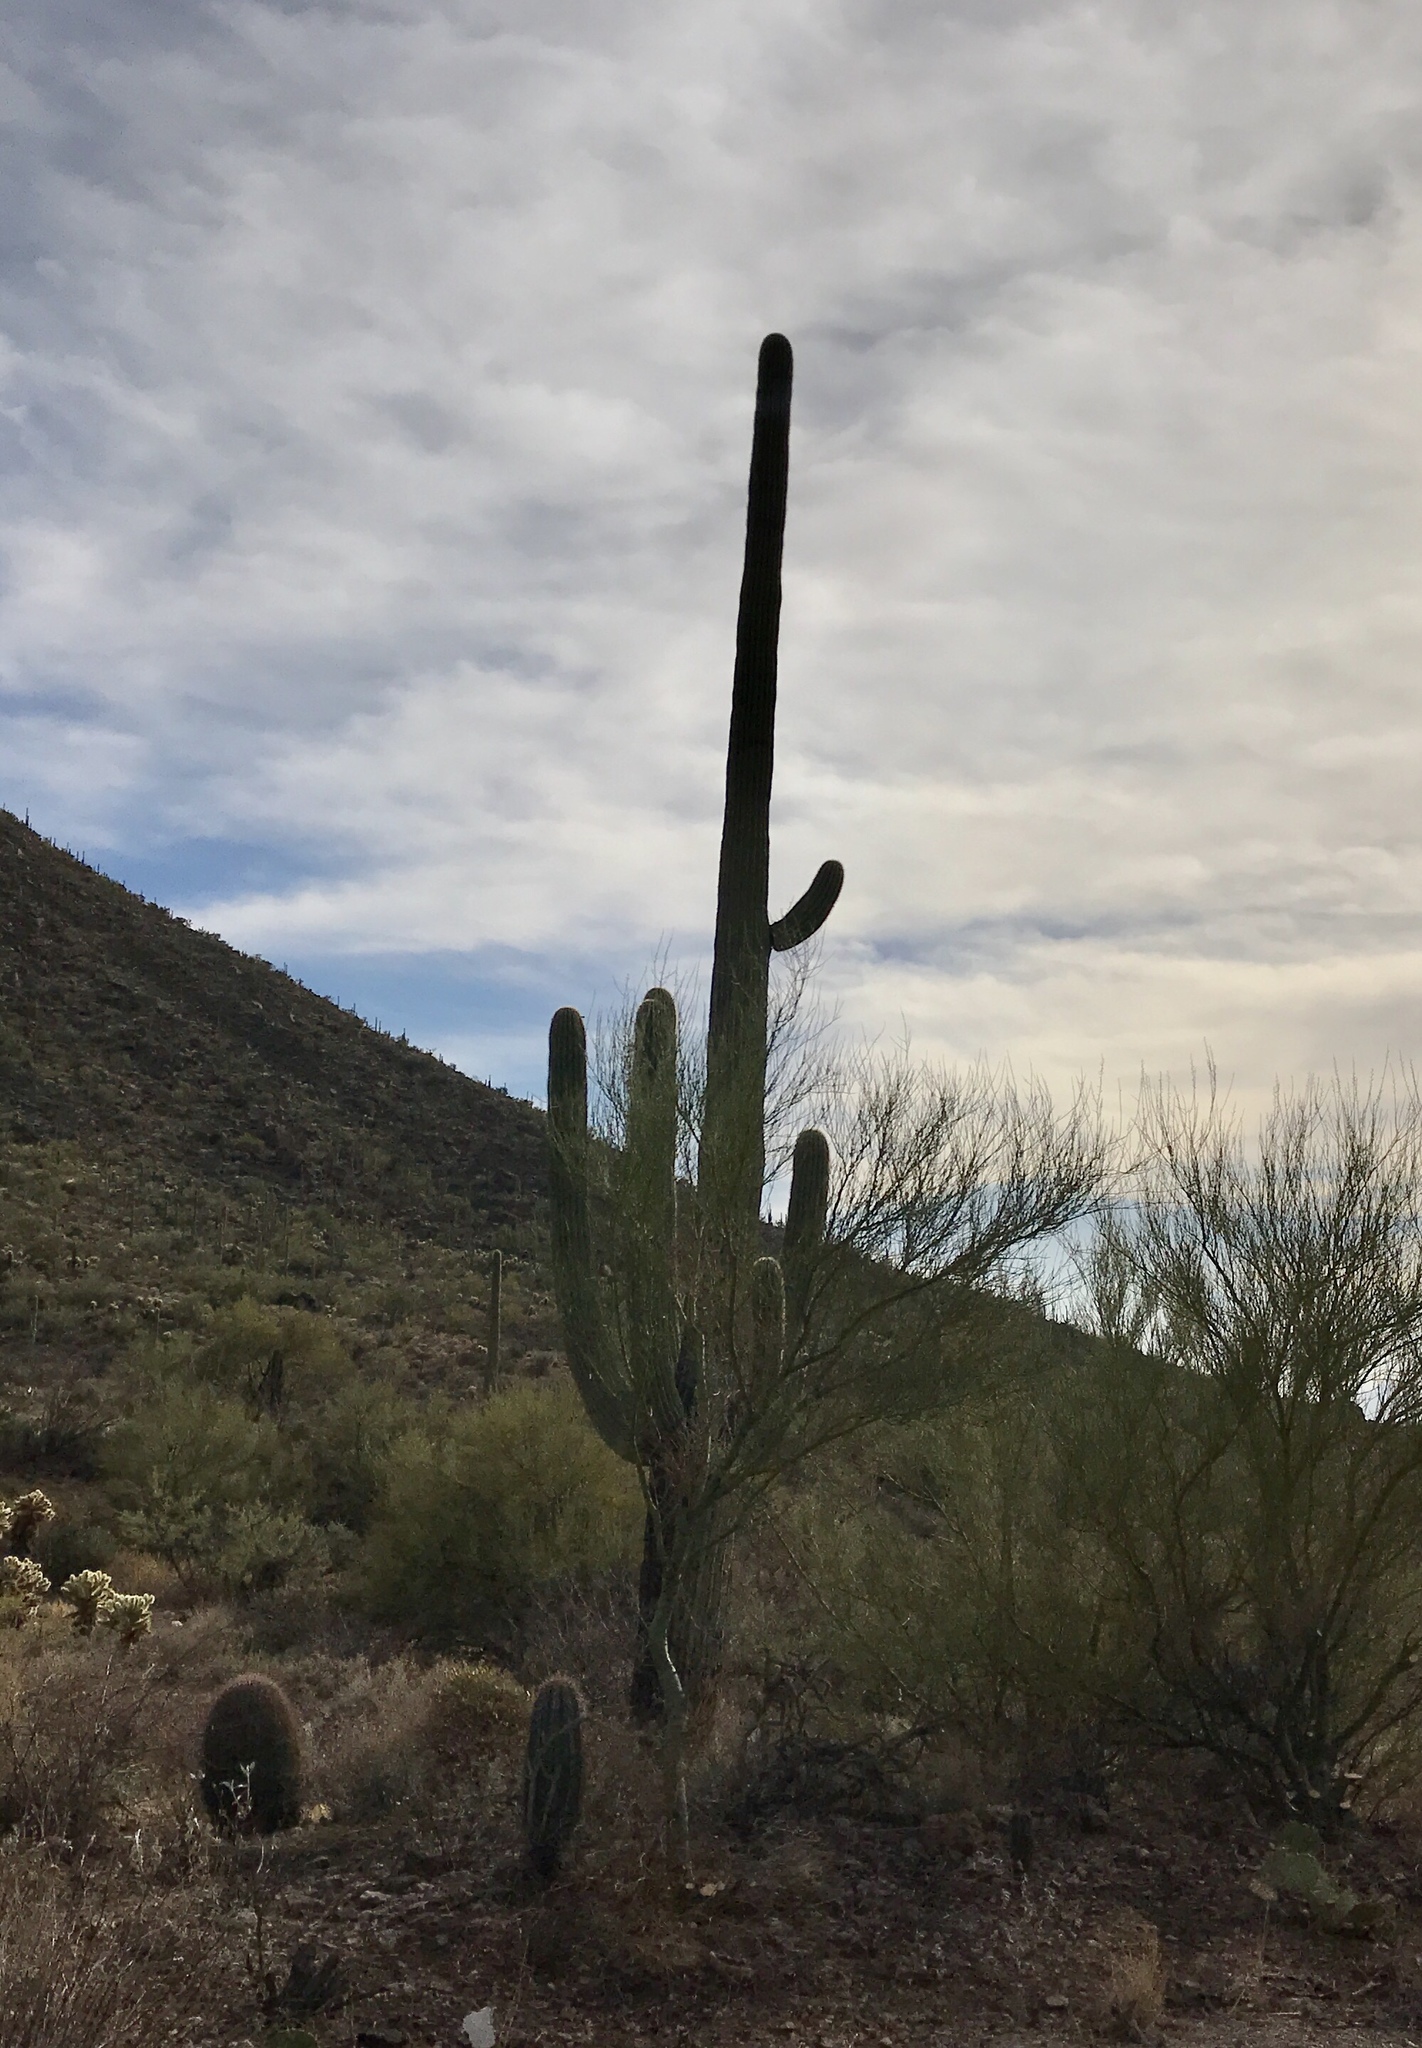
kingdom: Plantae
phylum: Tracheophyta
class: Magnoliopsida
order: Caryophyllales
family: Cactaceae
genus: Carnegiea
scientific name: Carnegiea gigantea
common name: Saguaro
